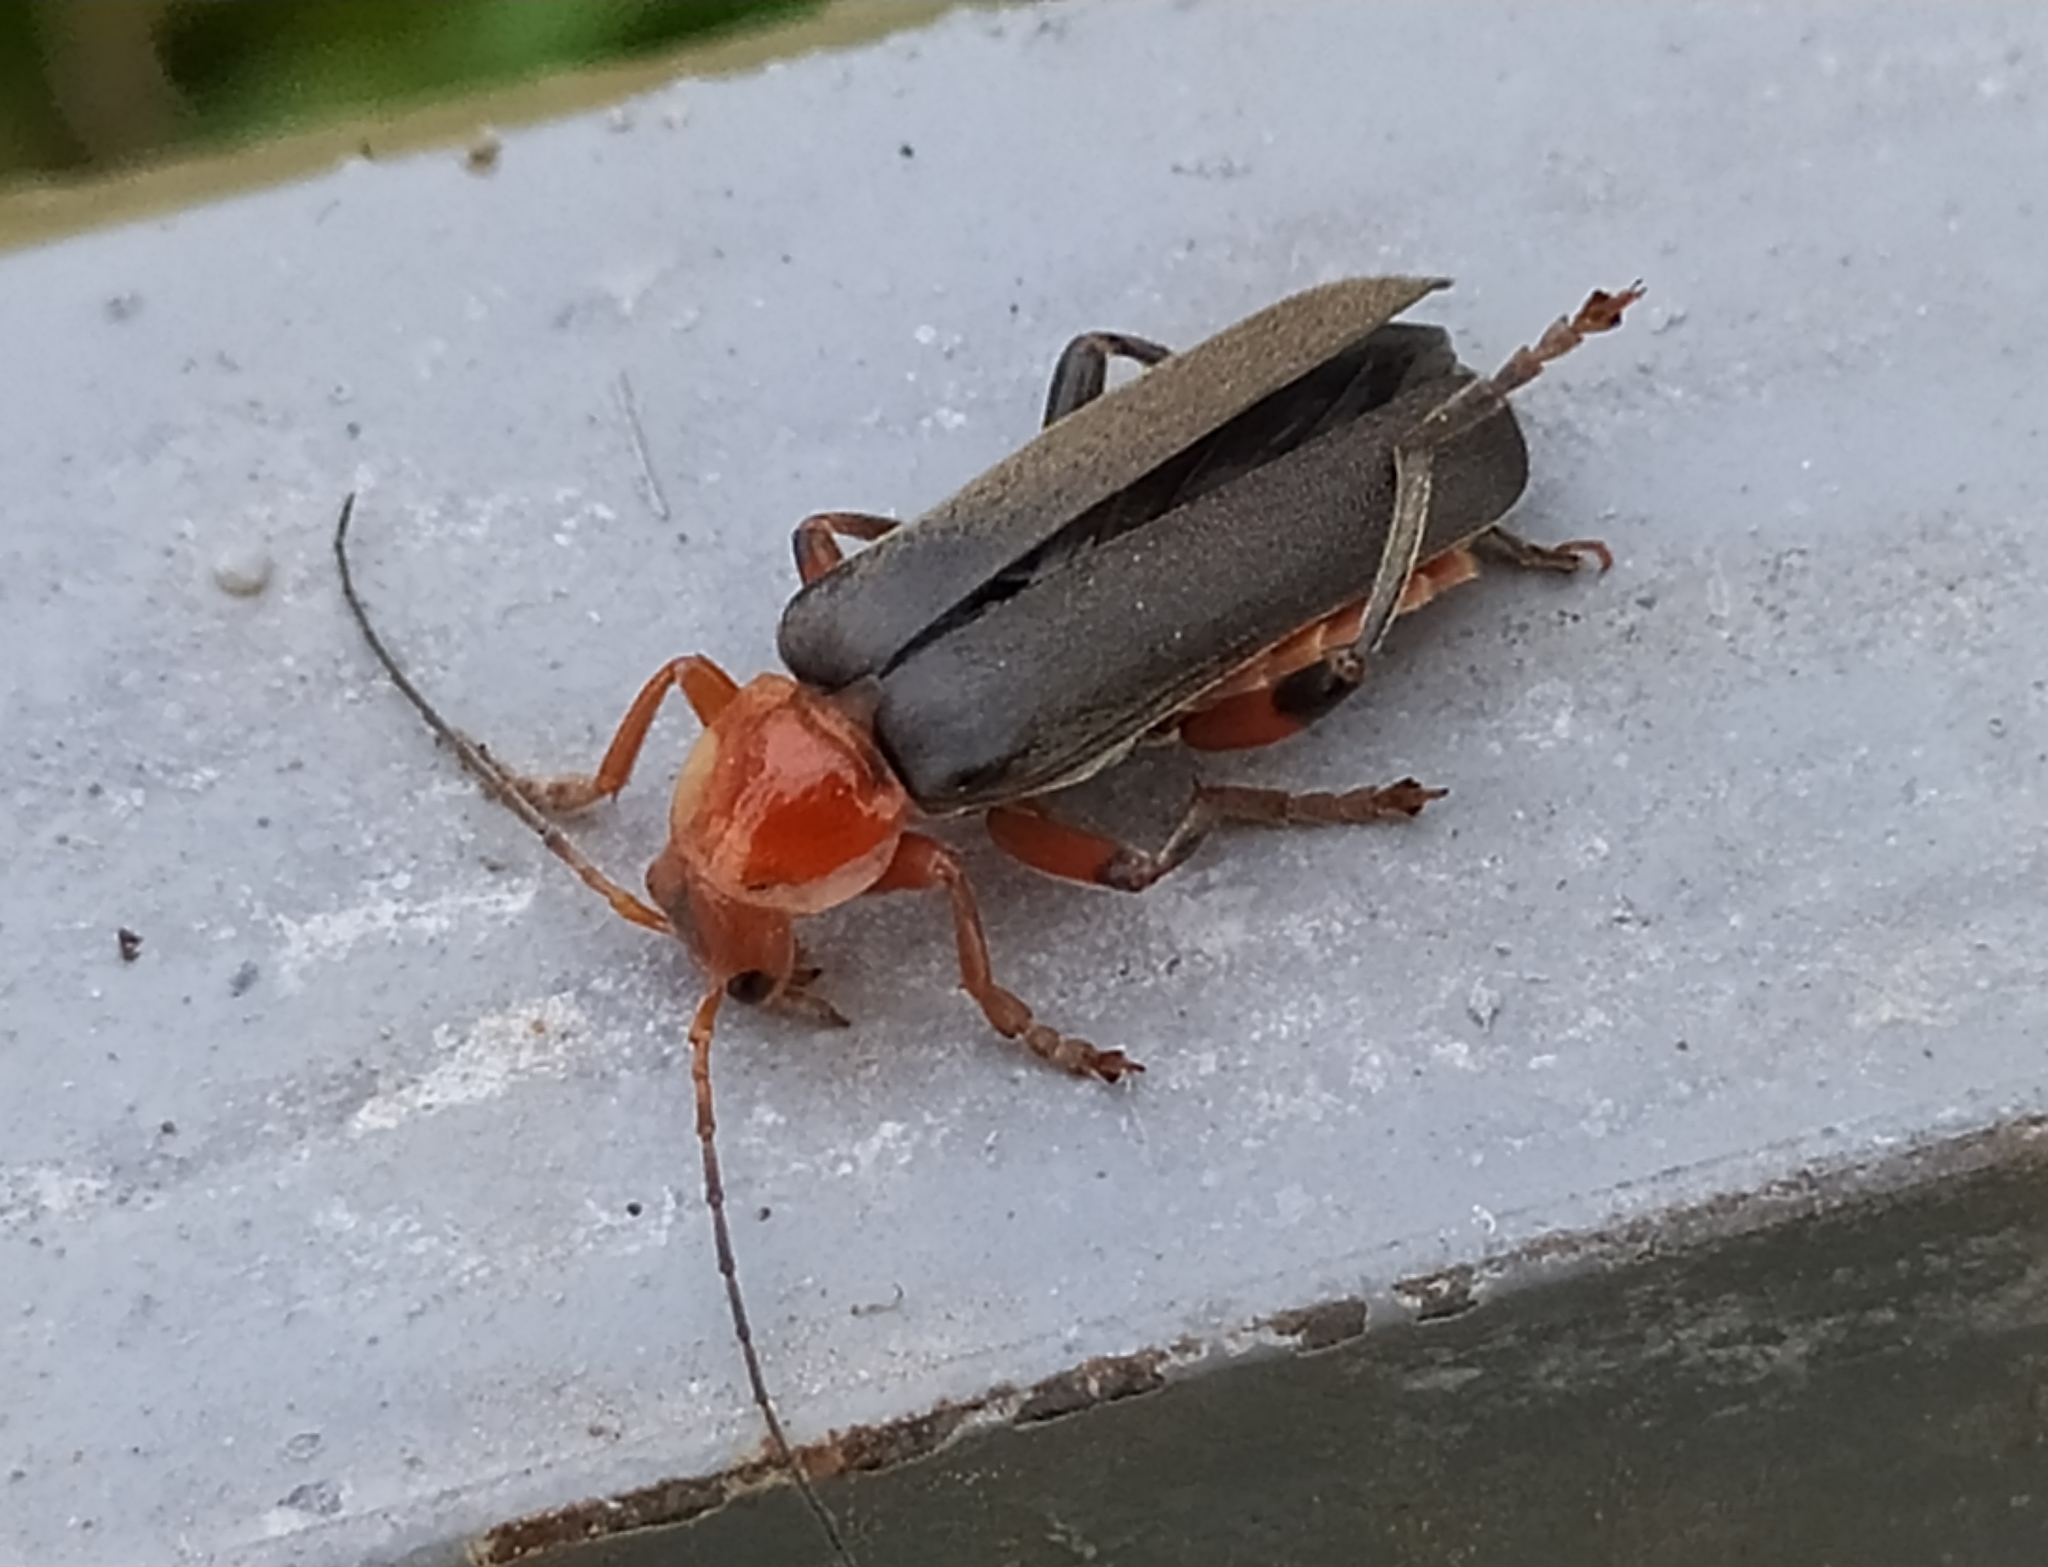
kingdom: Animalia
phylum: Arthropoda
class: Insecta
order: Coleoptera
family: Cantharidae
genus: Cantharis
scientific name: Cantharis livida
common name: Livid soldier beetle
